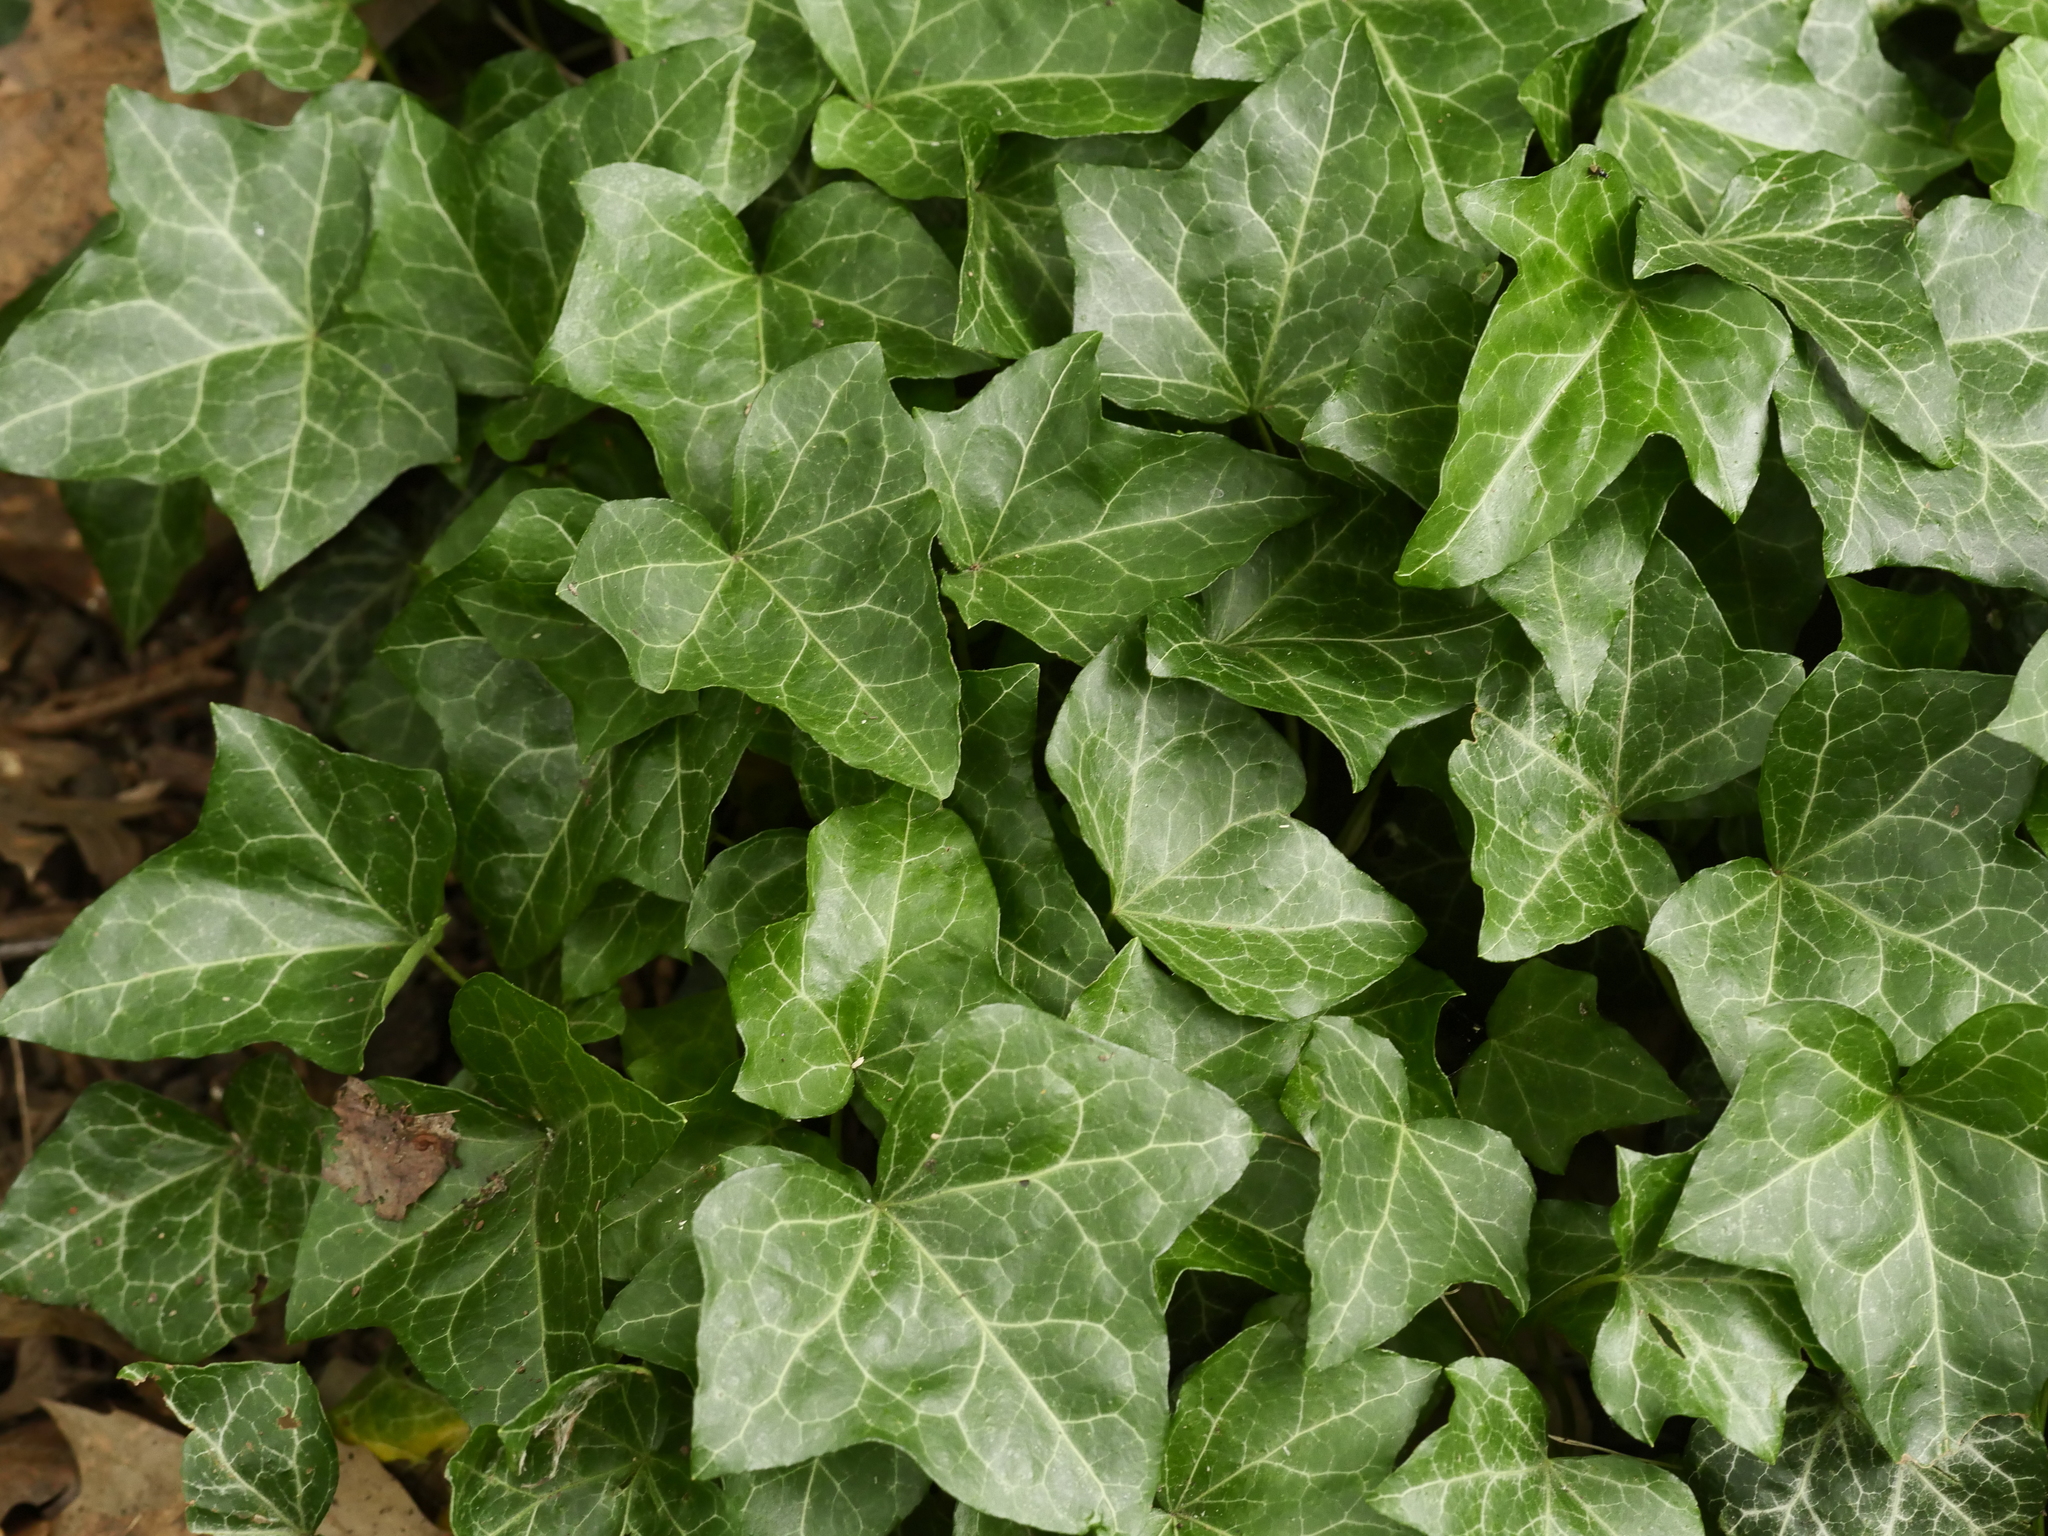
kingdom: Plantae
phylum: Tracheophyta
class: Magnoliopsida
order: Apiales
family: Araliaceae
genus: Hedera
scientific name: Hedera helix
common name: Ivy
